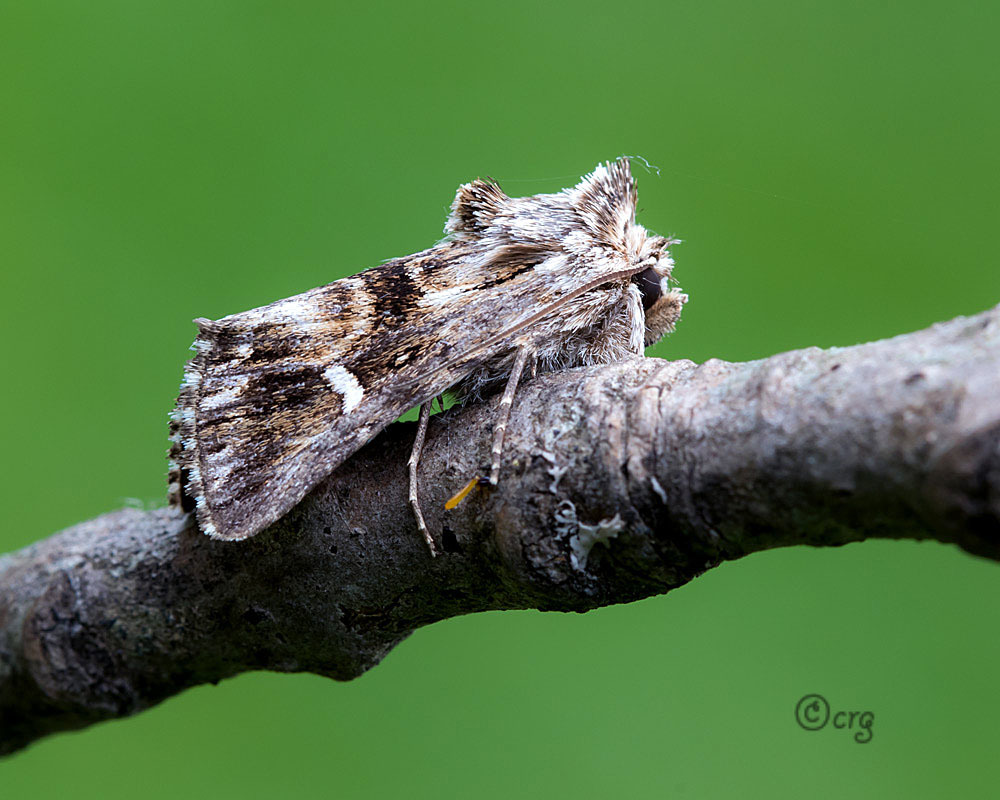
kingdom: Animalia
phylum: Arthropoda
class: Insecta
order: Lepidoptera
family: Noctuidae
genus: Calophasia
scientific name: Calophasia lunula
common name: Toadflax brocade
